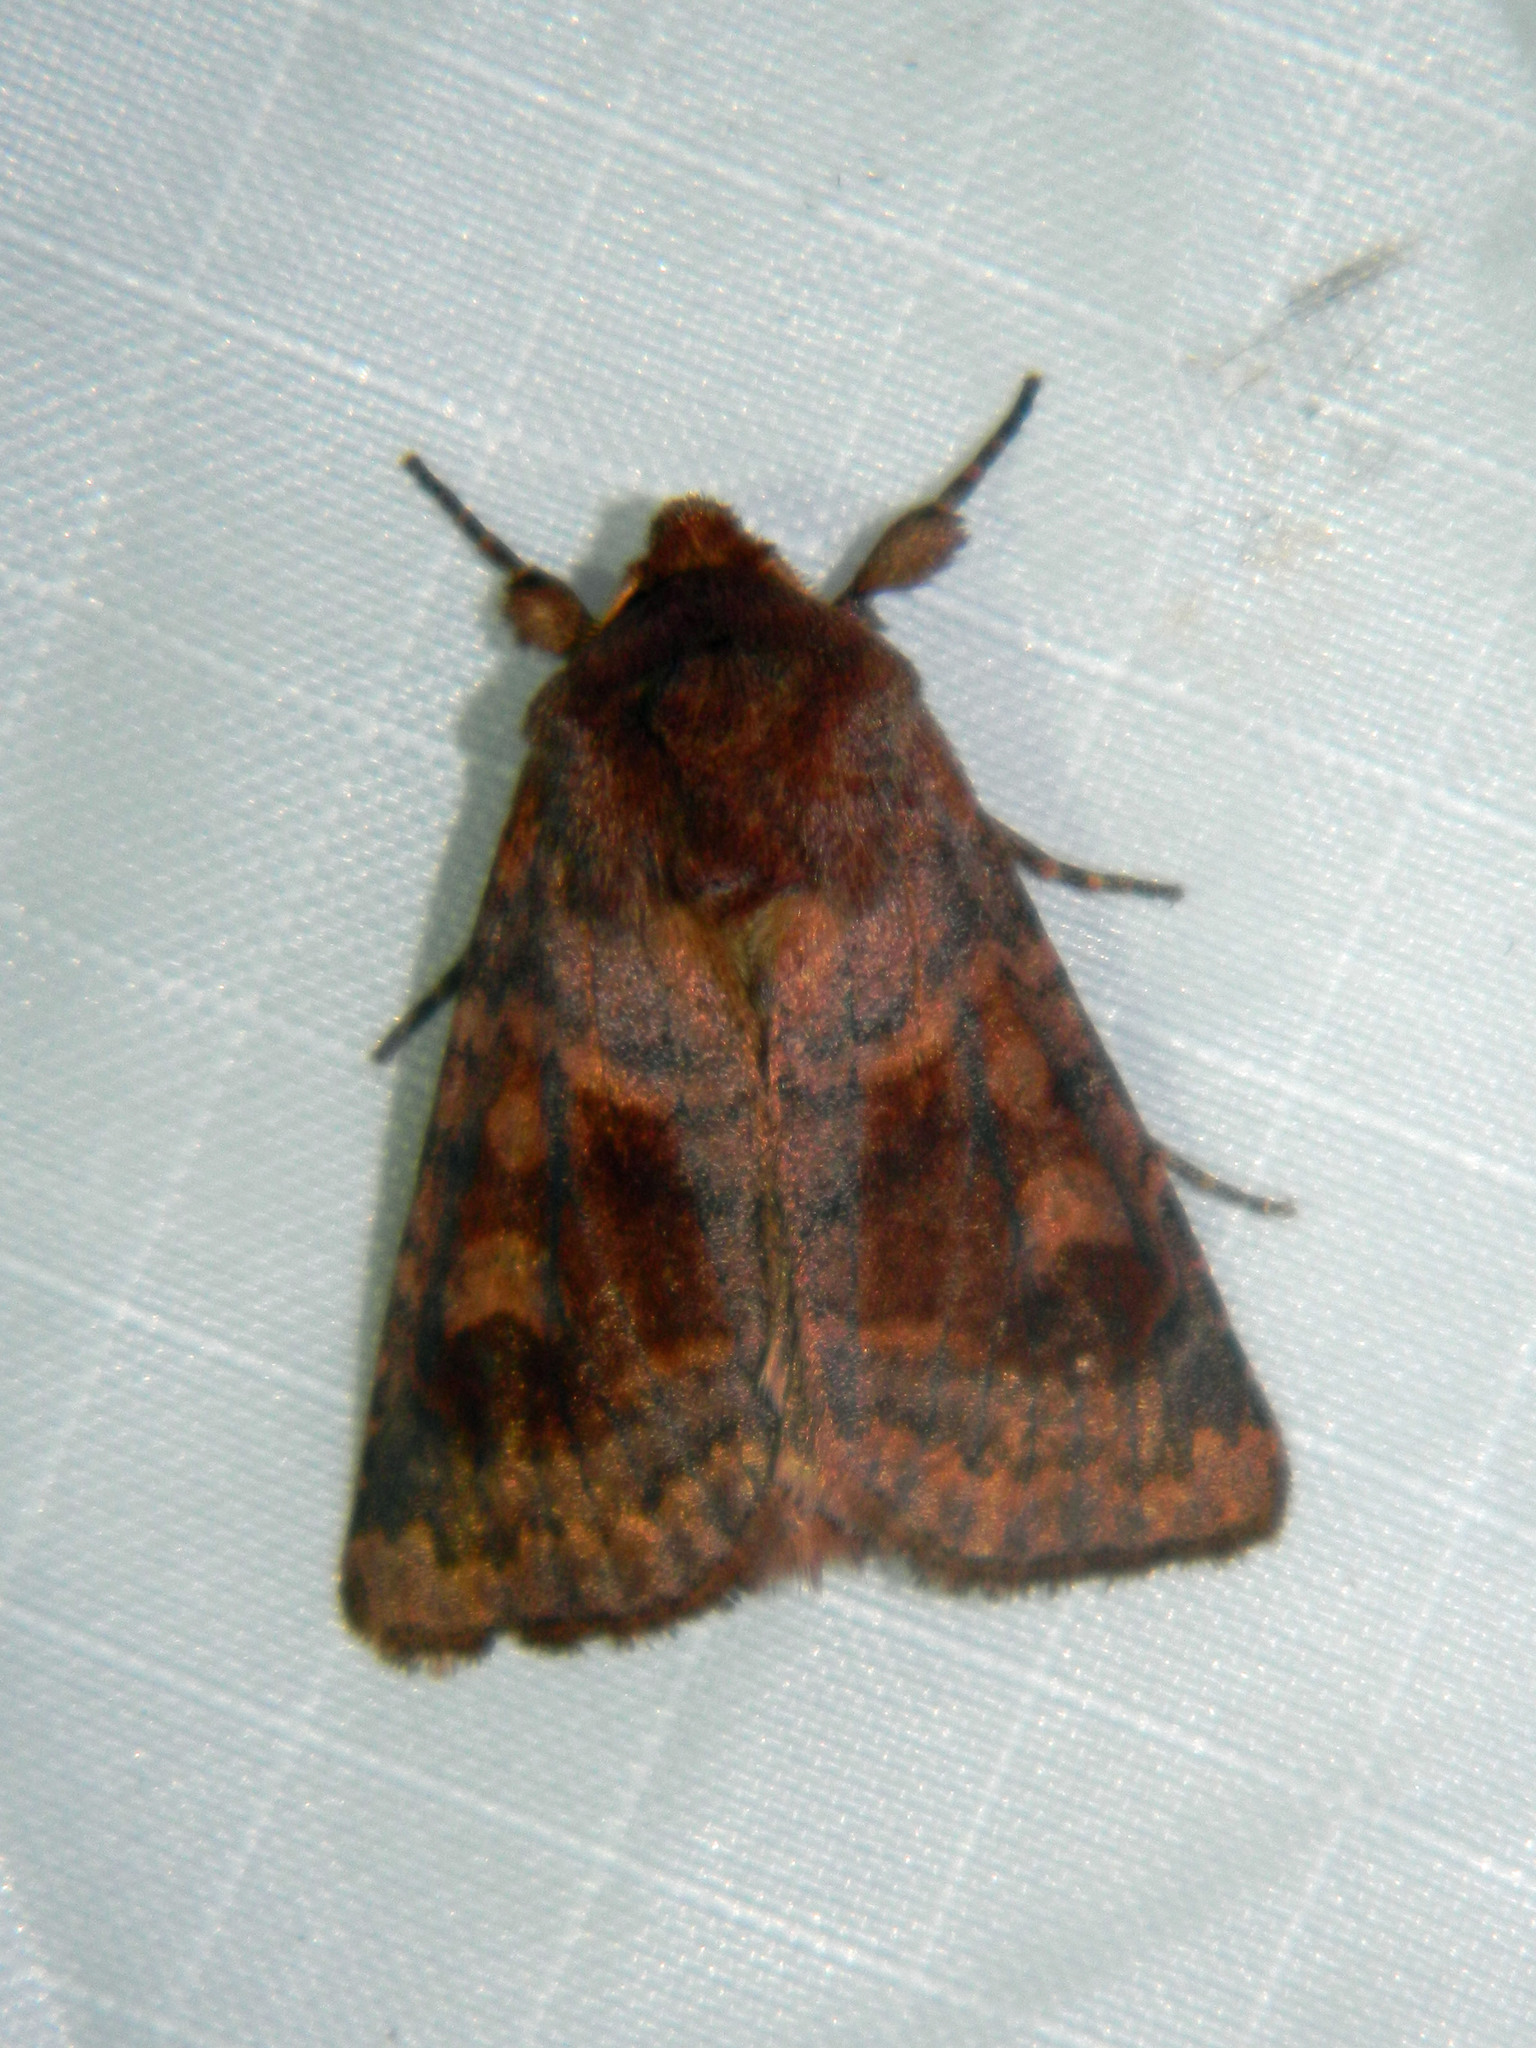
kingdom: Animalia
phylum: Arthropoda
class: Insecta
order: Lepidoptera
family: Noctuidae
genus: Nephelodes
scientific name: Nephelodes minians
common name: Bronzed cutworm
